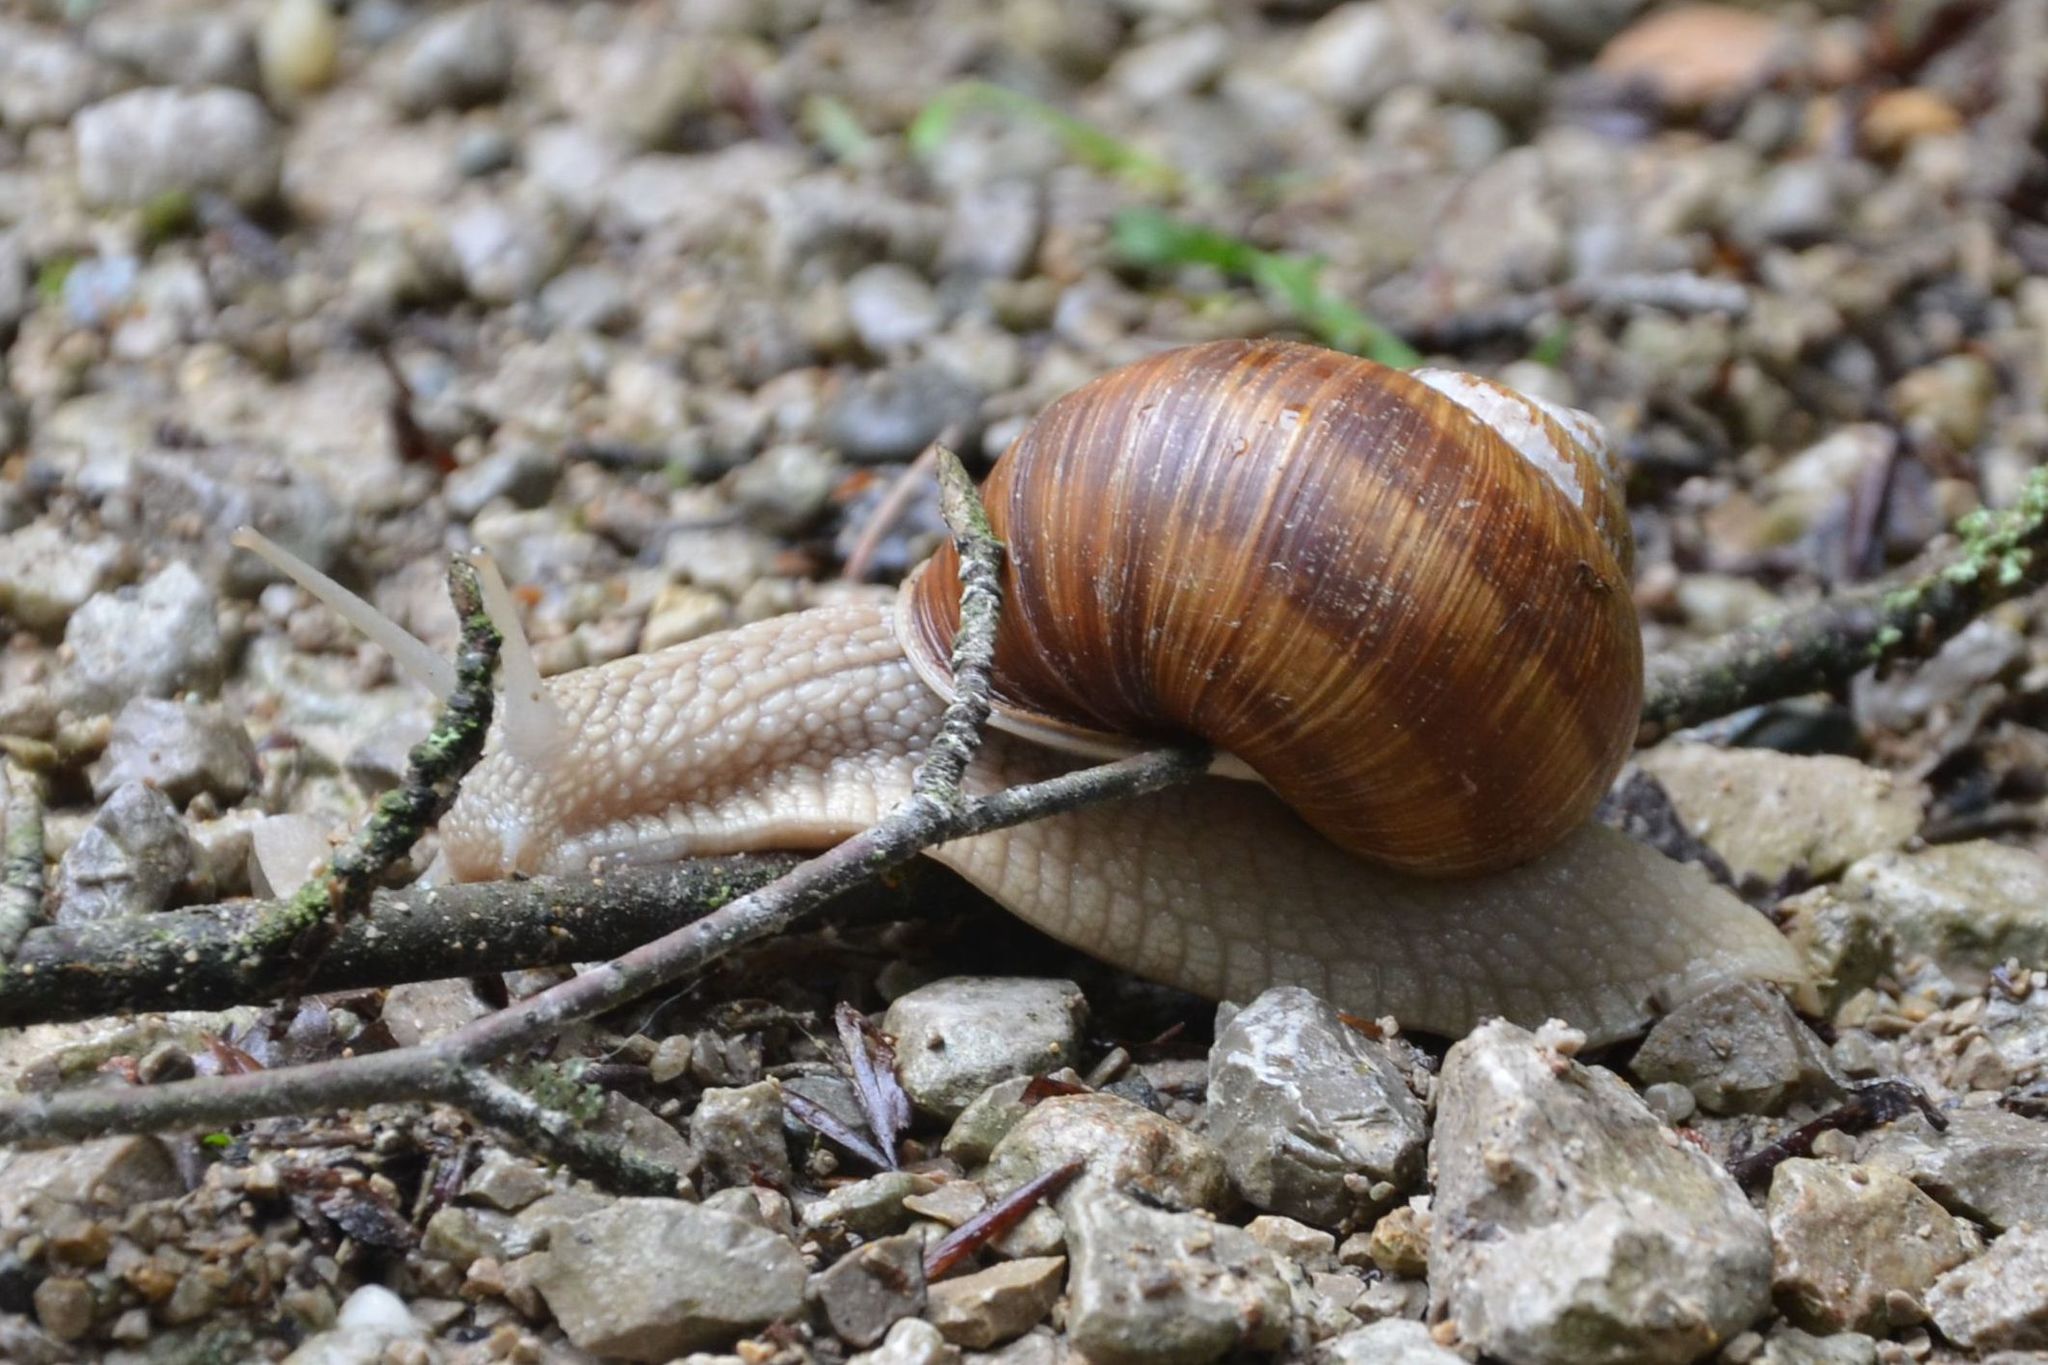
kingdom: Animalia
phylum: Mollusca
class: Gastropoda
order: Stylommatophora
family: Helicidae
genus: Helix
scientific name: Helix pomatia
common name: Roman snail
